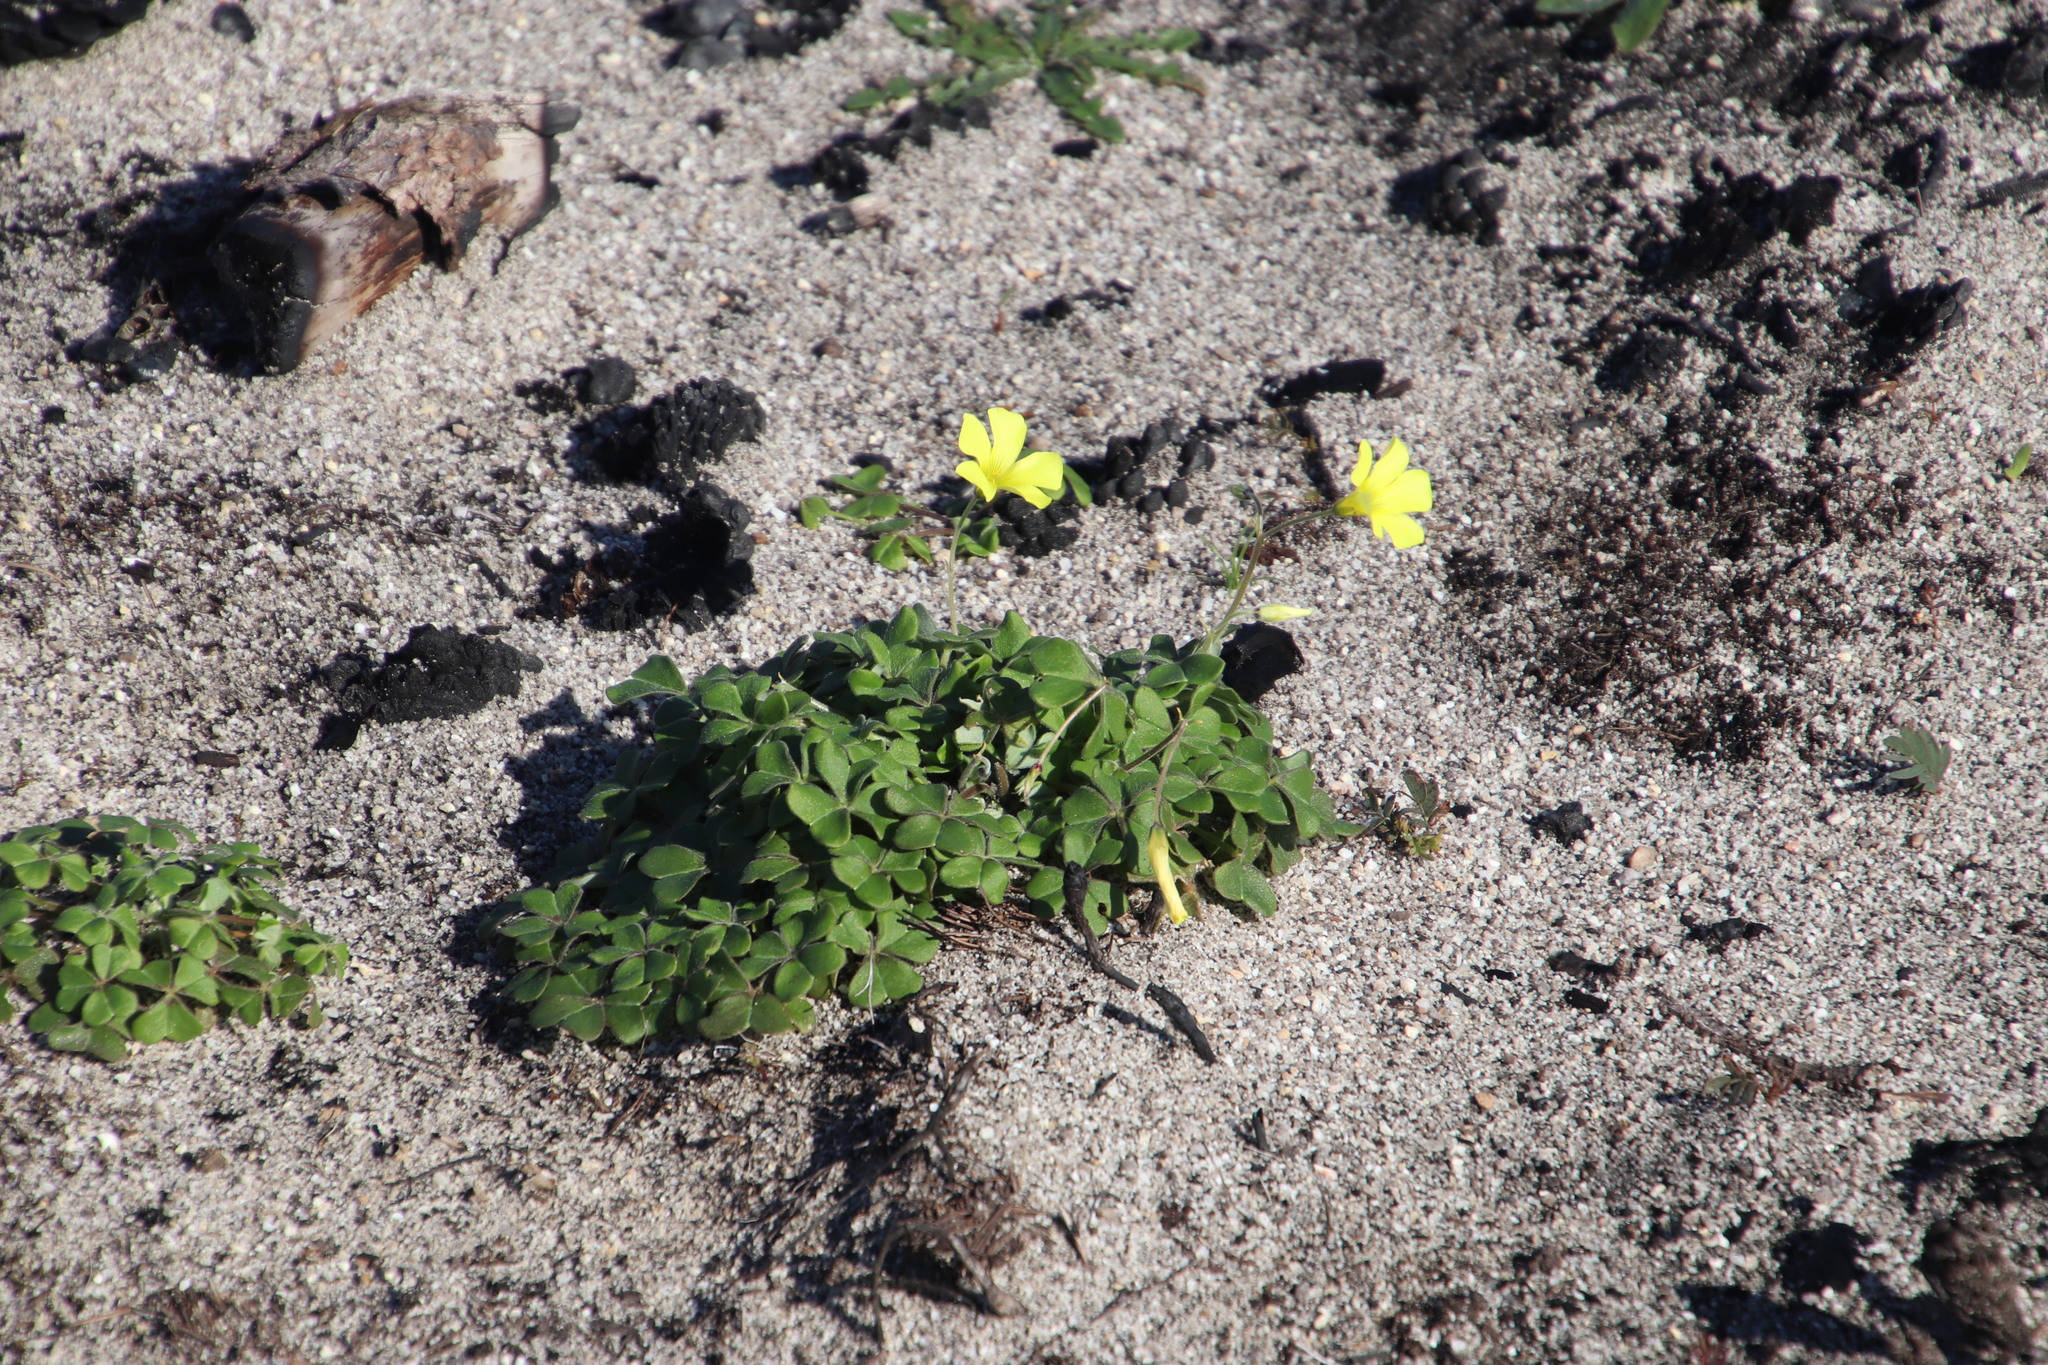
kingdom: Plantae
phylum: Tracheophyta
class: Magnoliopsida
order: Oxalidales
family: Oxalidaceae
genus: Oxalis
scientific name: Oxalis compressa
